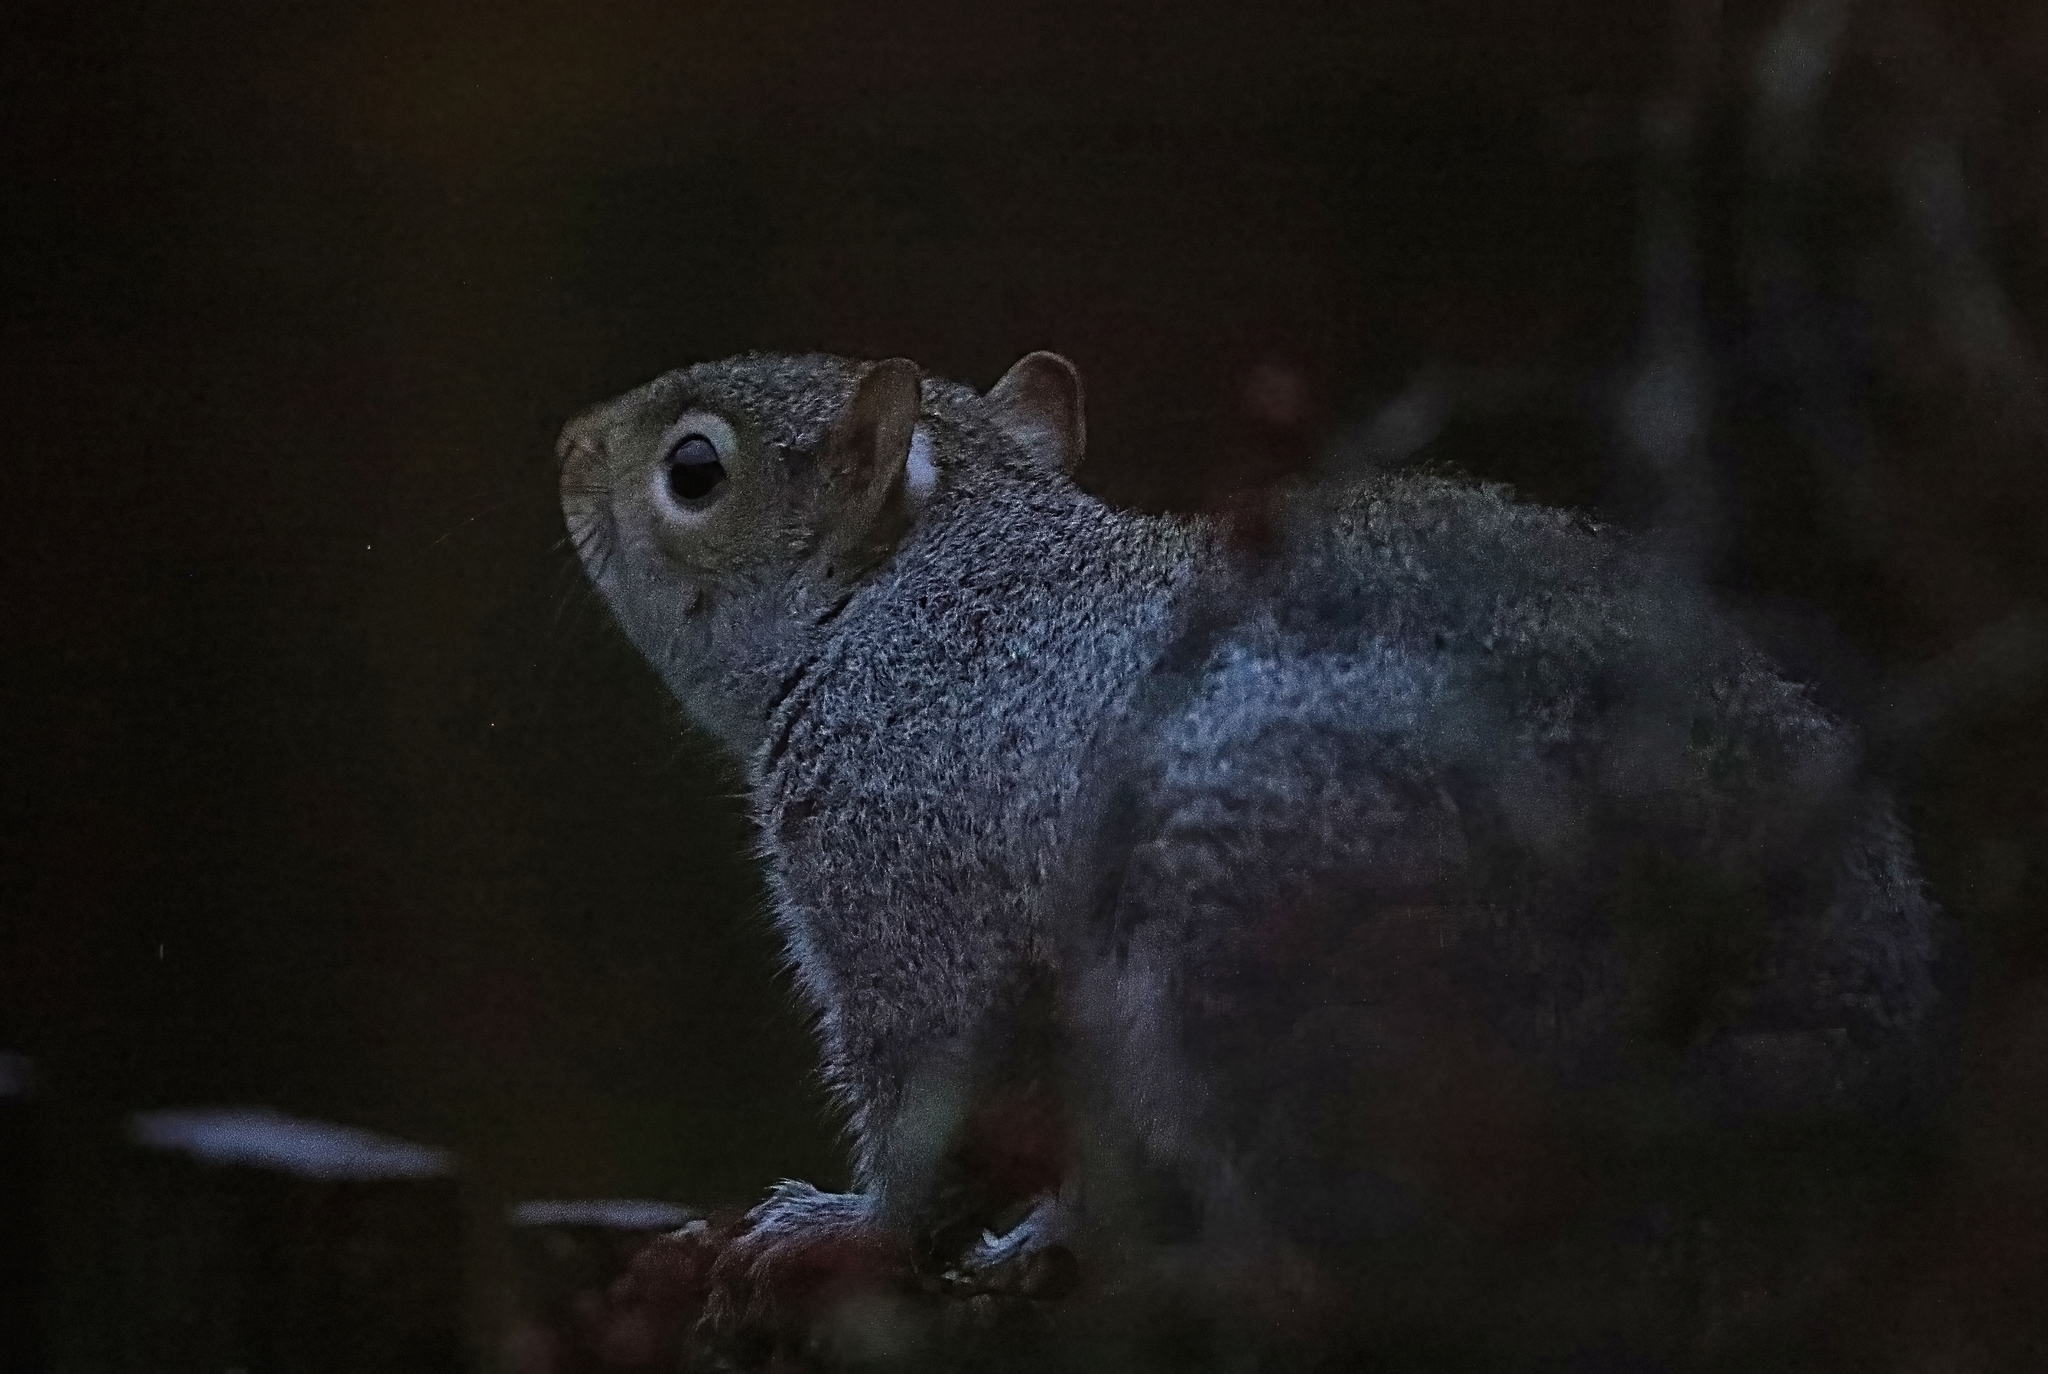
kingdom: Animalia
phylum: Chordata
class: Mammalia
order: Rodentia
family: Sciuridae
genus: Sciurus
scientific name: Sciurus carolinensis
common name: Eastern gray squirrel
